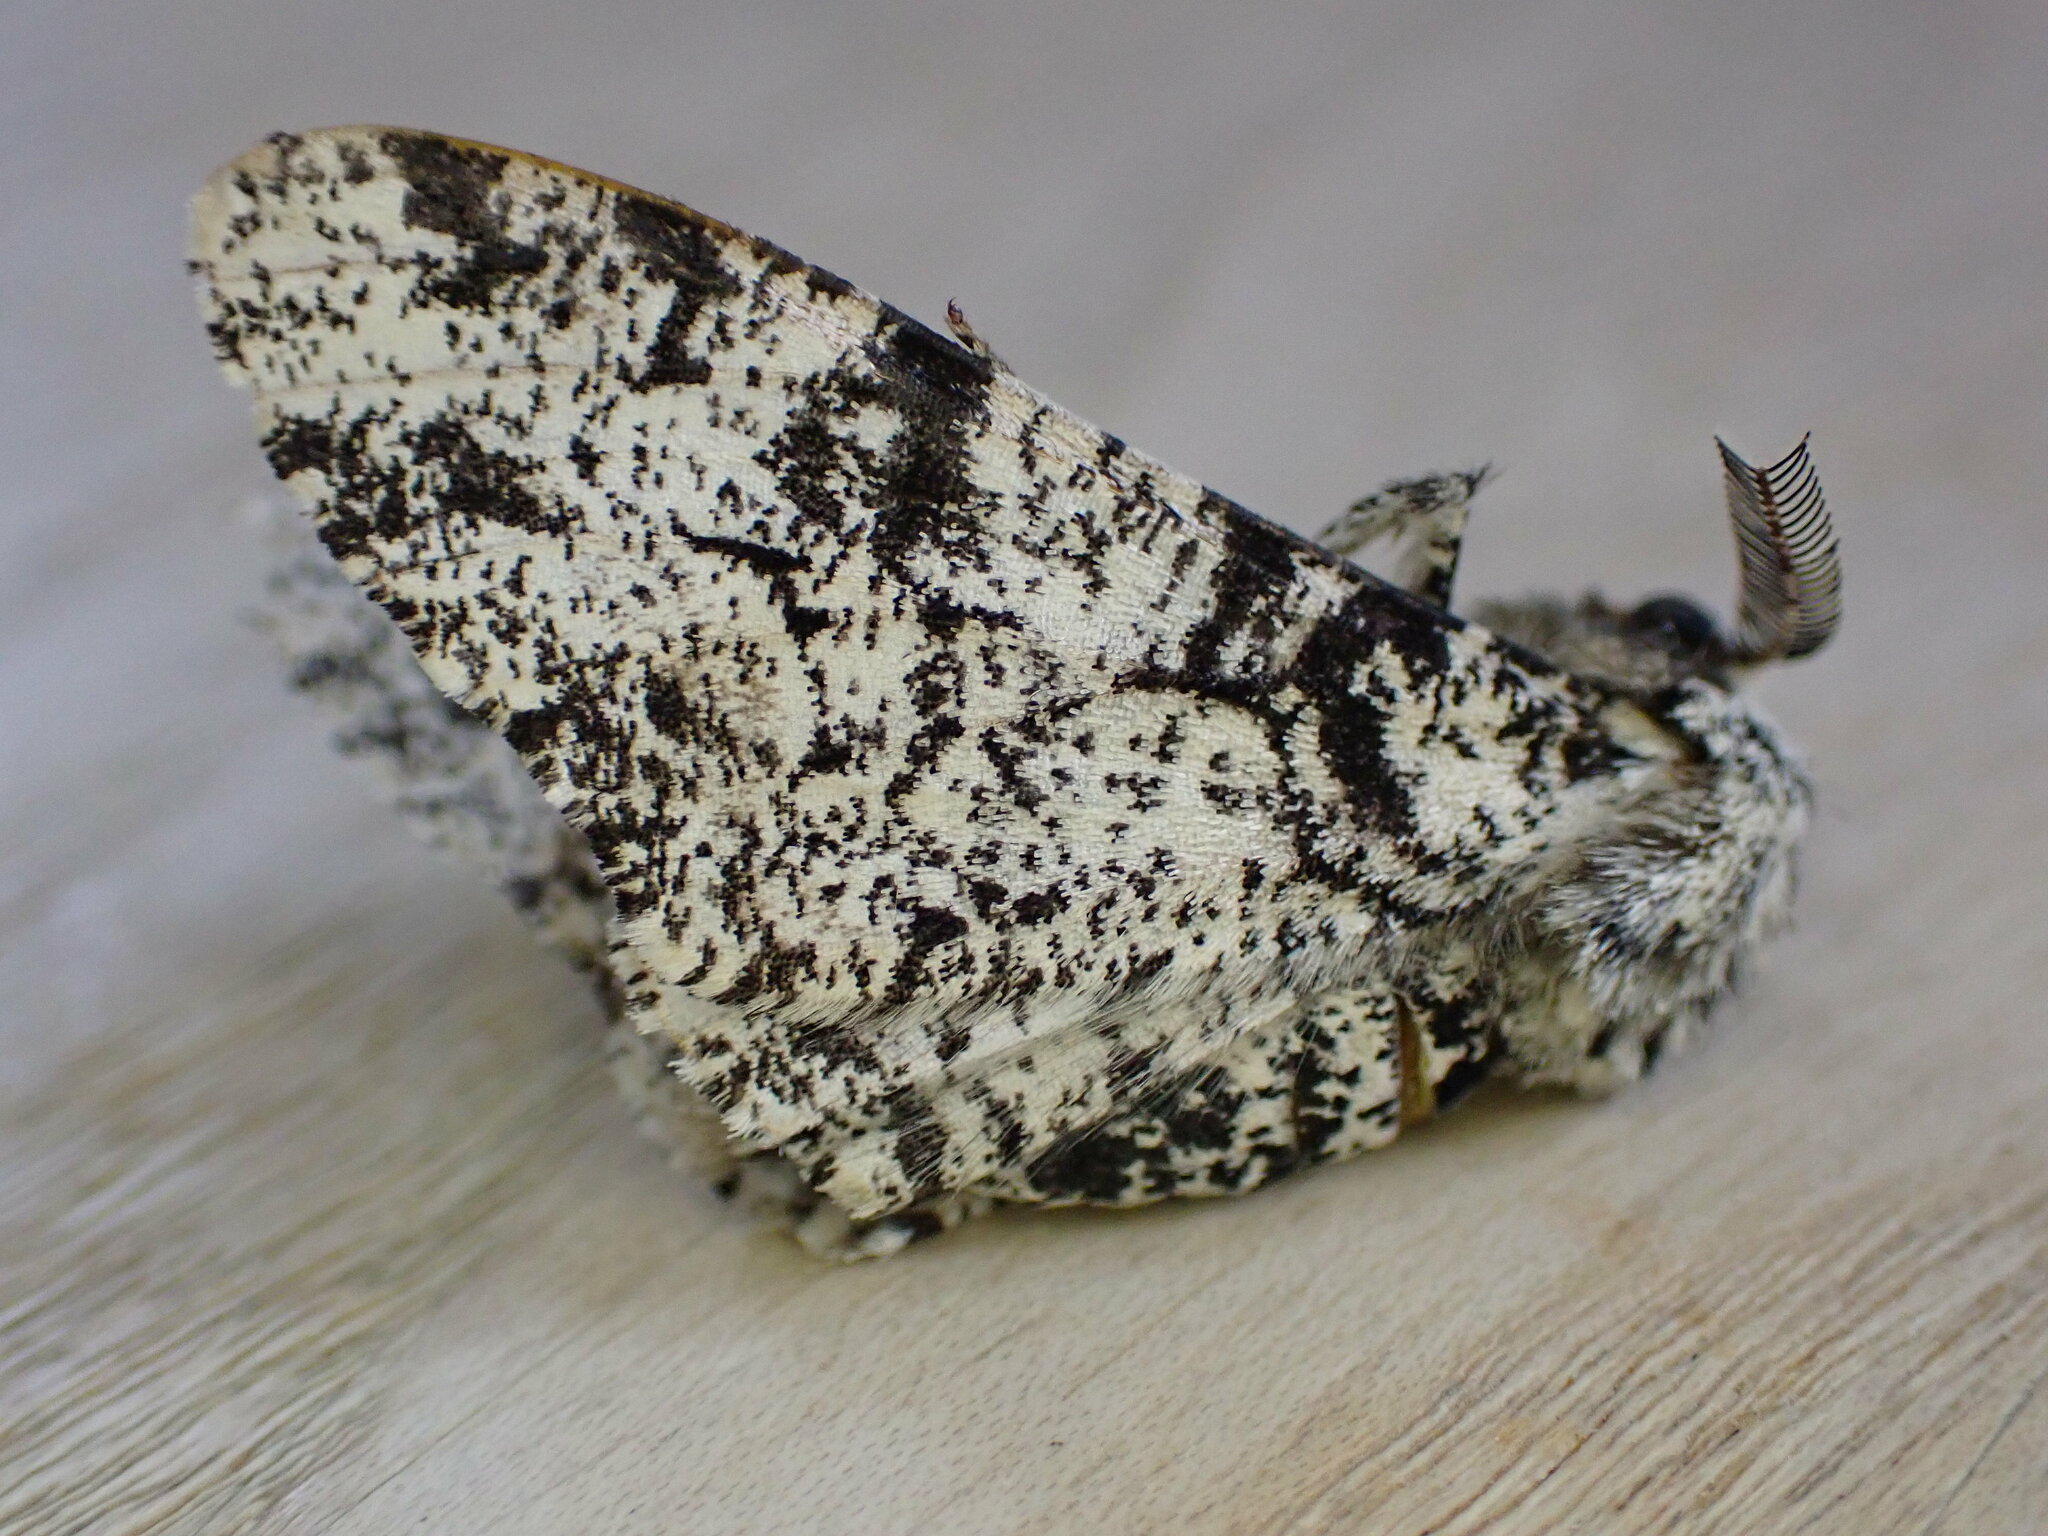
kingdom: Animalia
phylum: Arthropoda
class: Insecta
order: Lepidoptera
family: Geometridae
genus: Biston
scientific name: Biston betularia
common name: Peppered moth
